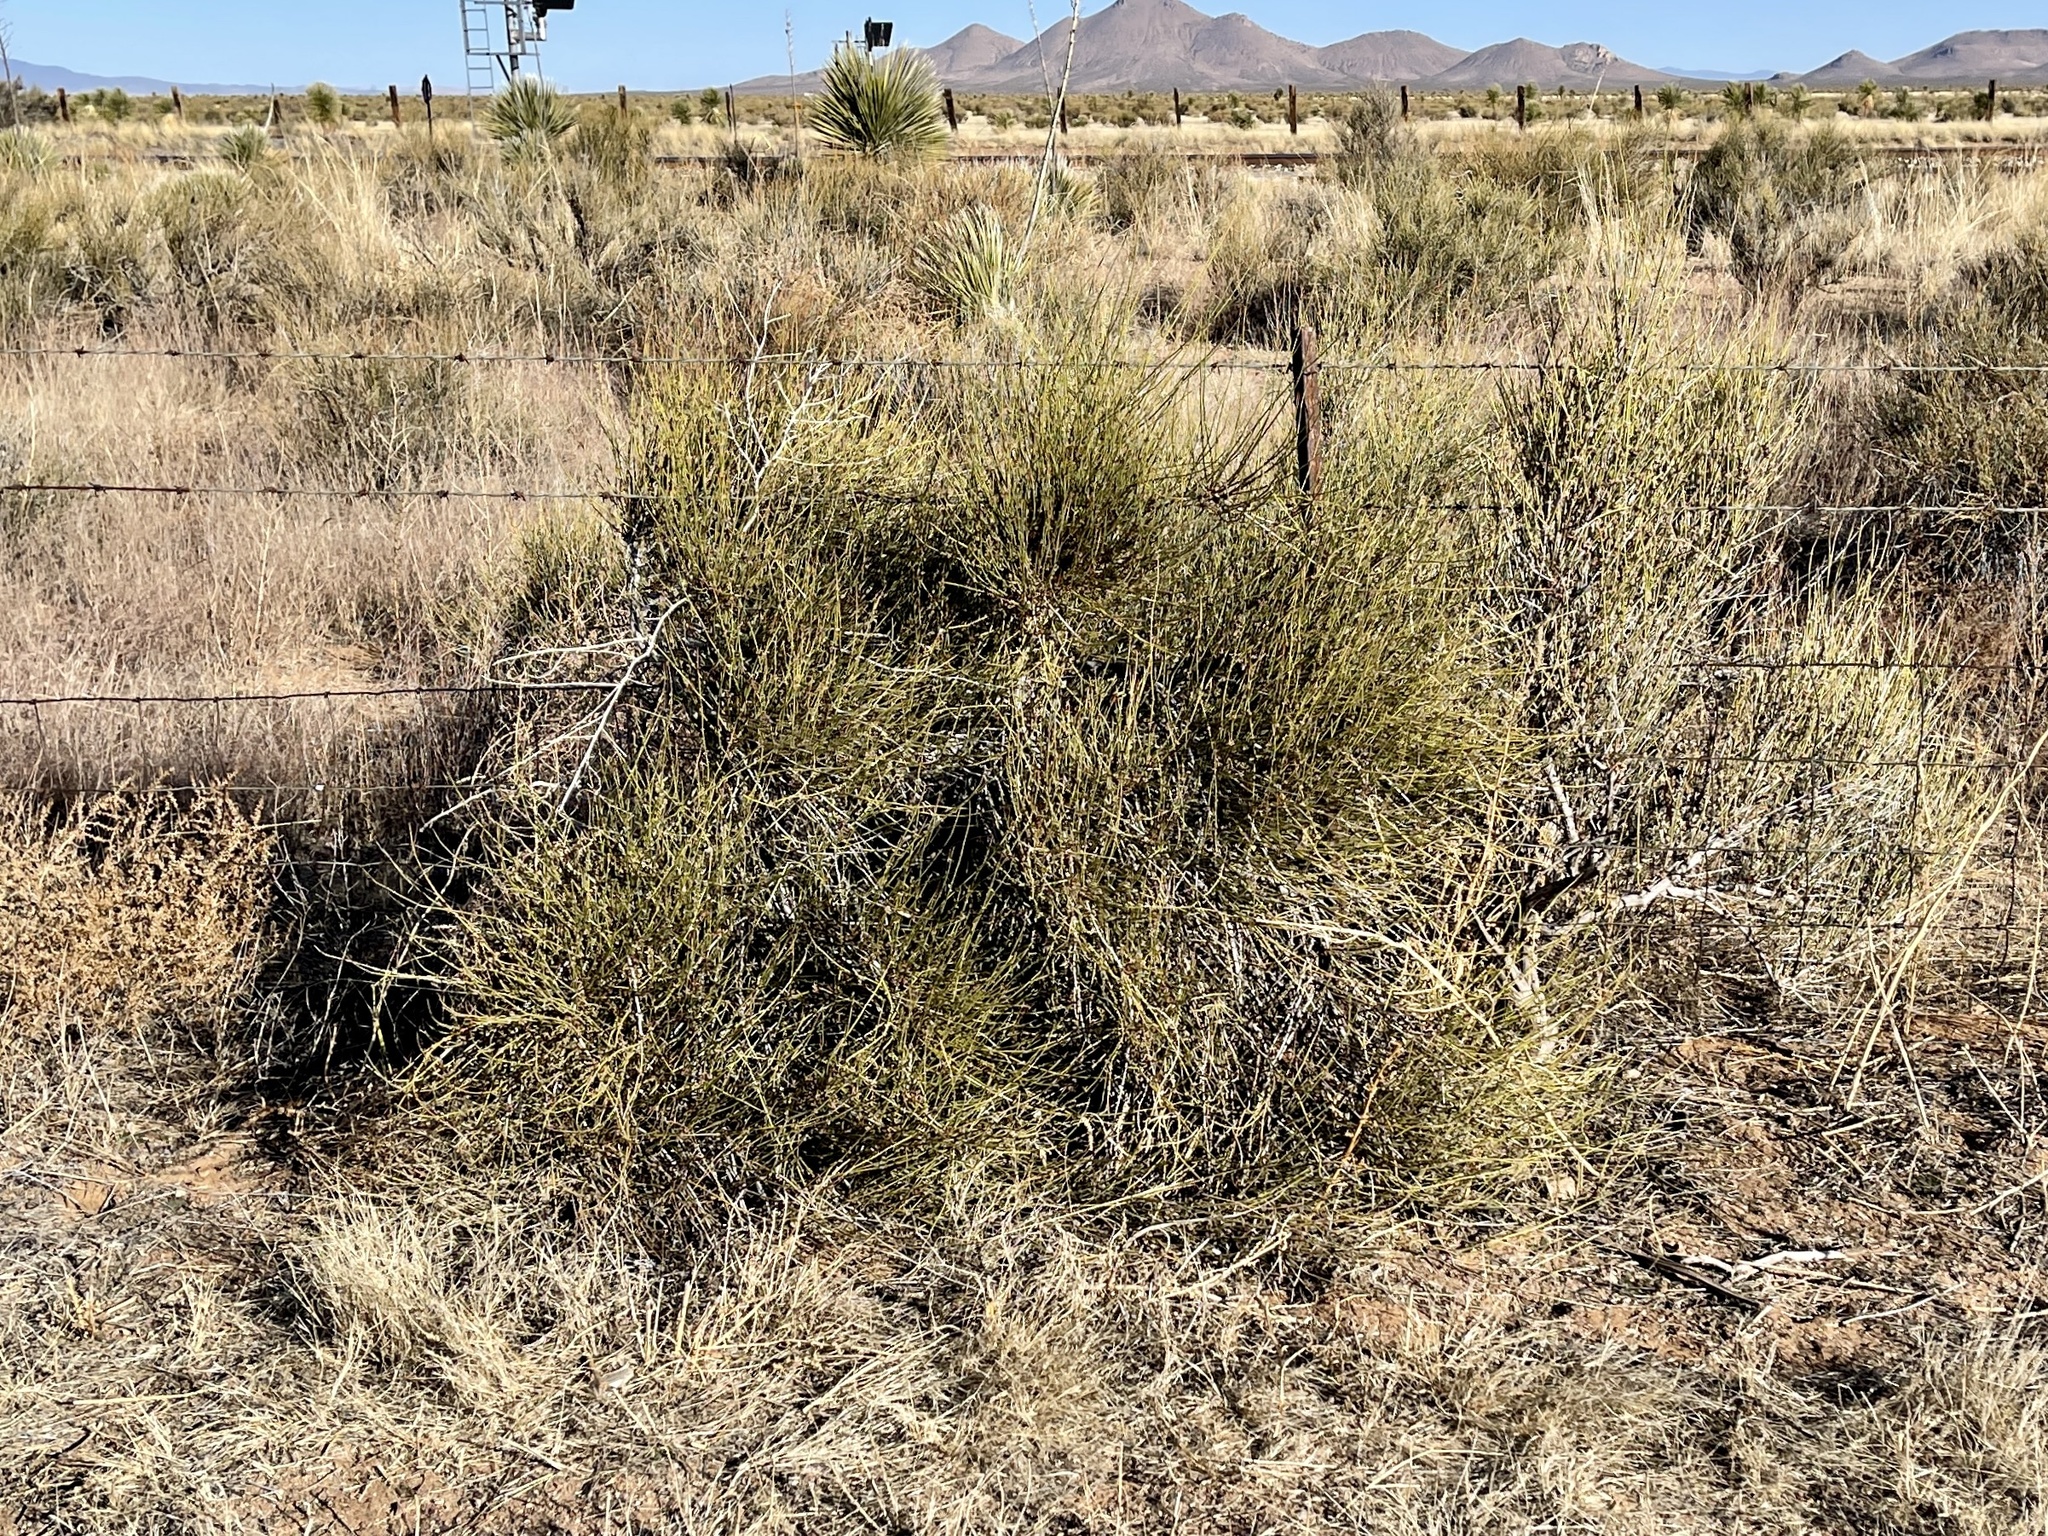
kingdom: Plantae
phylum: Tracheophyta
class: Gnetopsida
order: Ephedrales
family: Ephedraceae
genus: Ephedra
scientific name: Ephedra trifurca
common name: Mexican-tea
